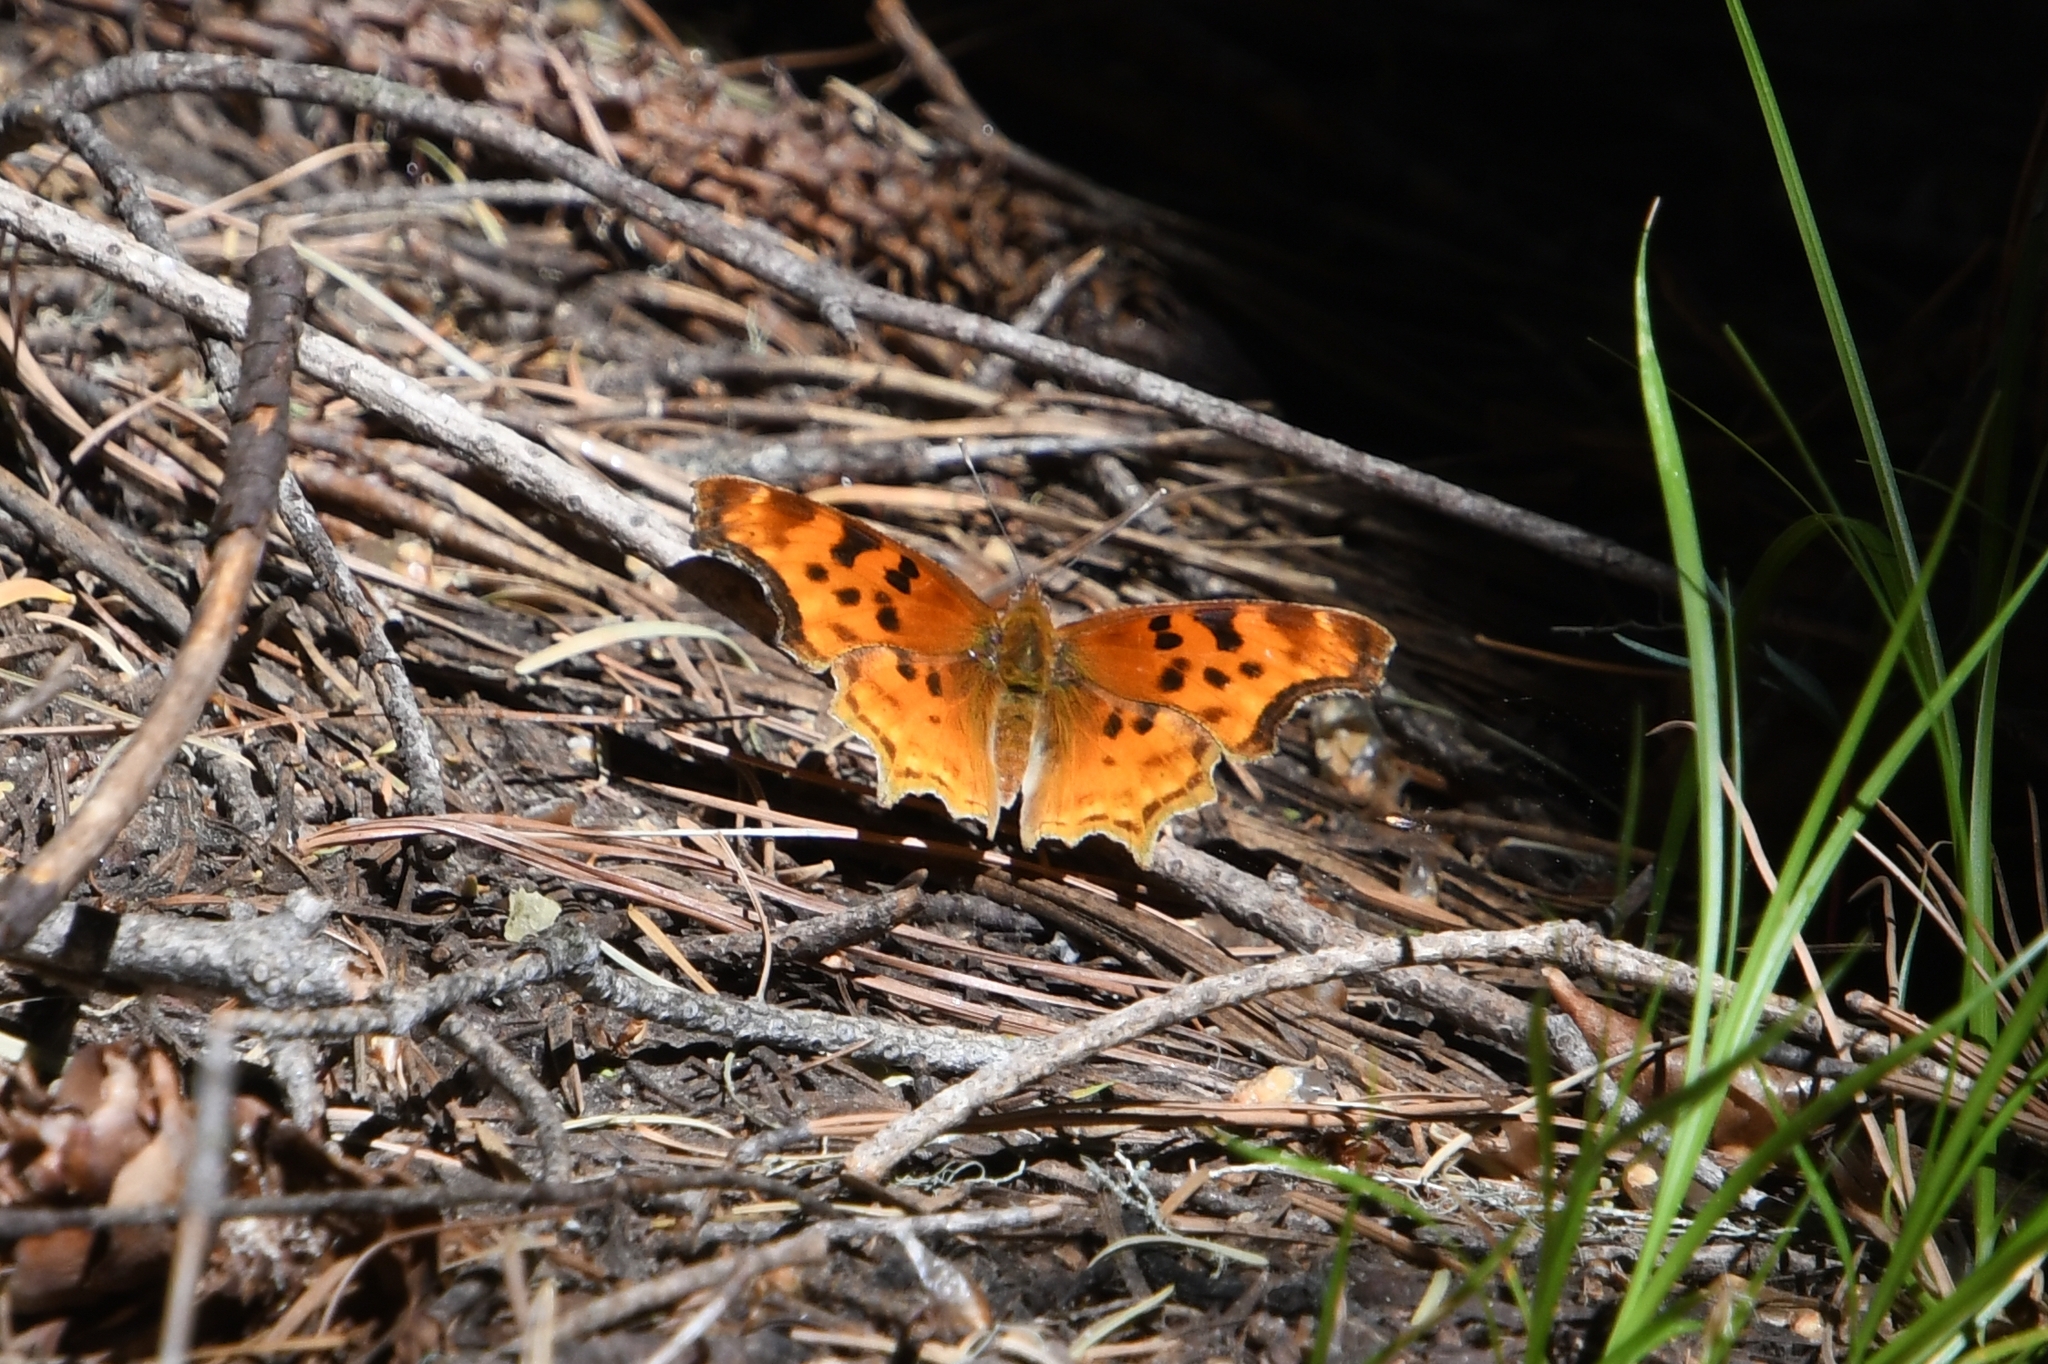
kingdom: Animalia
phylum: Arthropoda
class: Insecta
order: Lepidoptera
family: Nymphalidae
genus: Polygonia
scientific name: Polygonia satyrus
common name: Satyr angle wing
